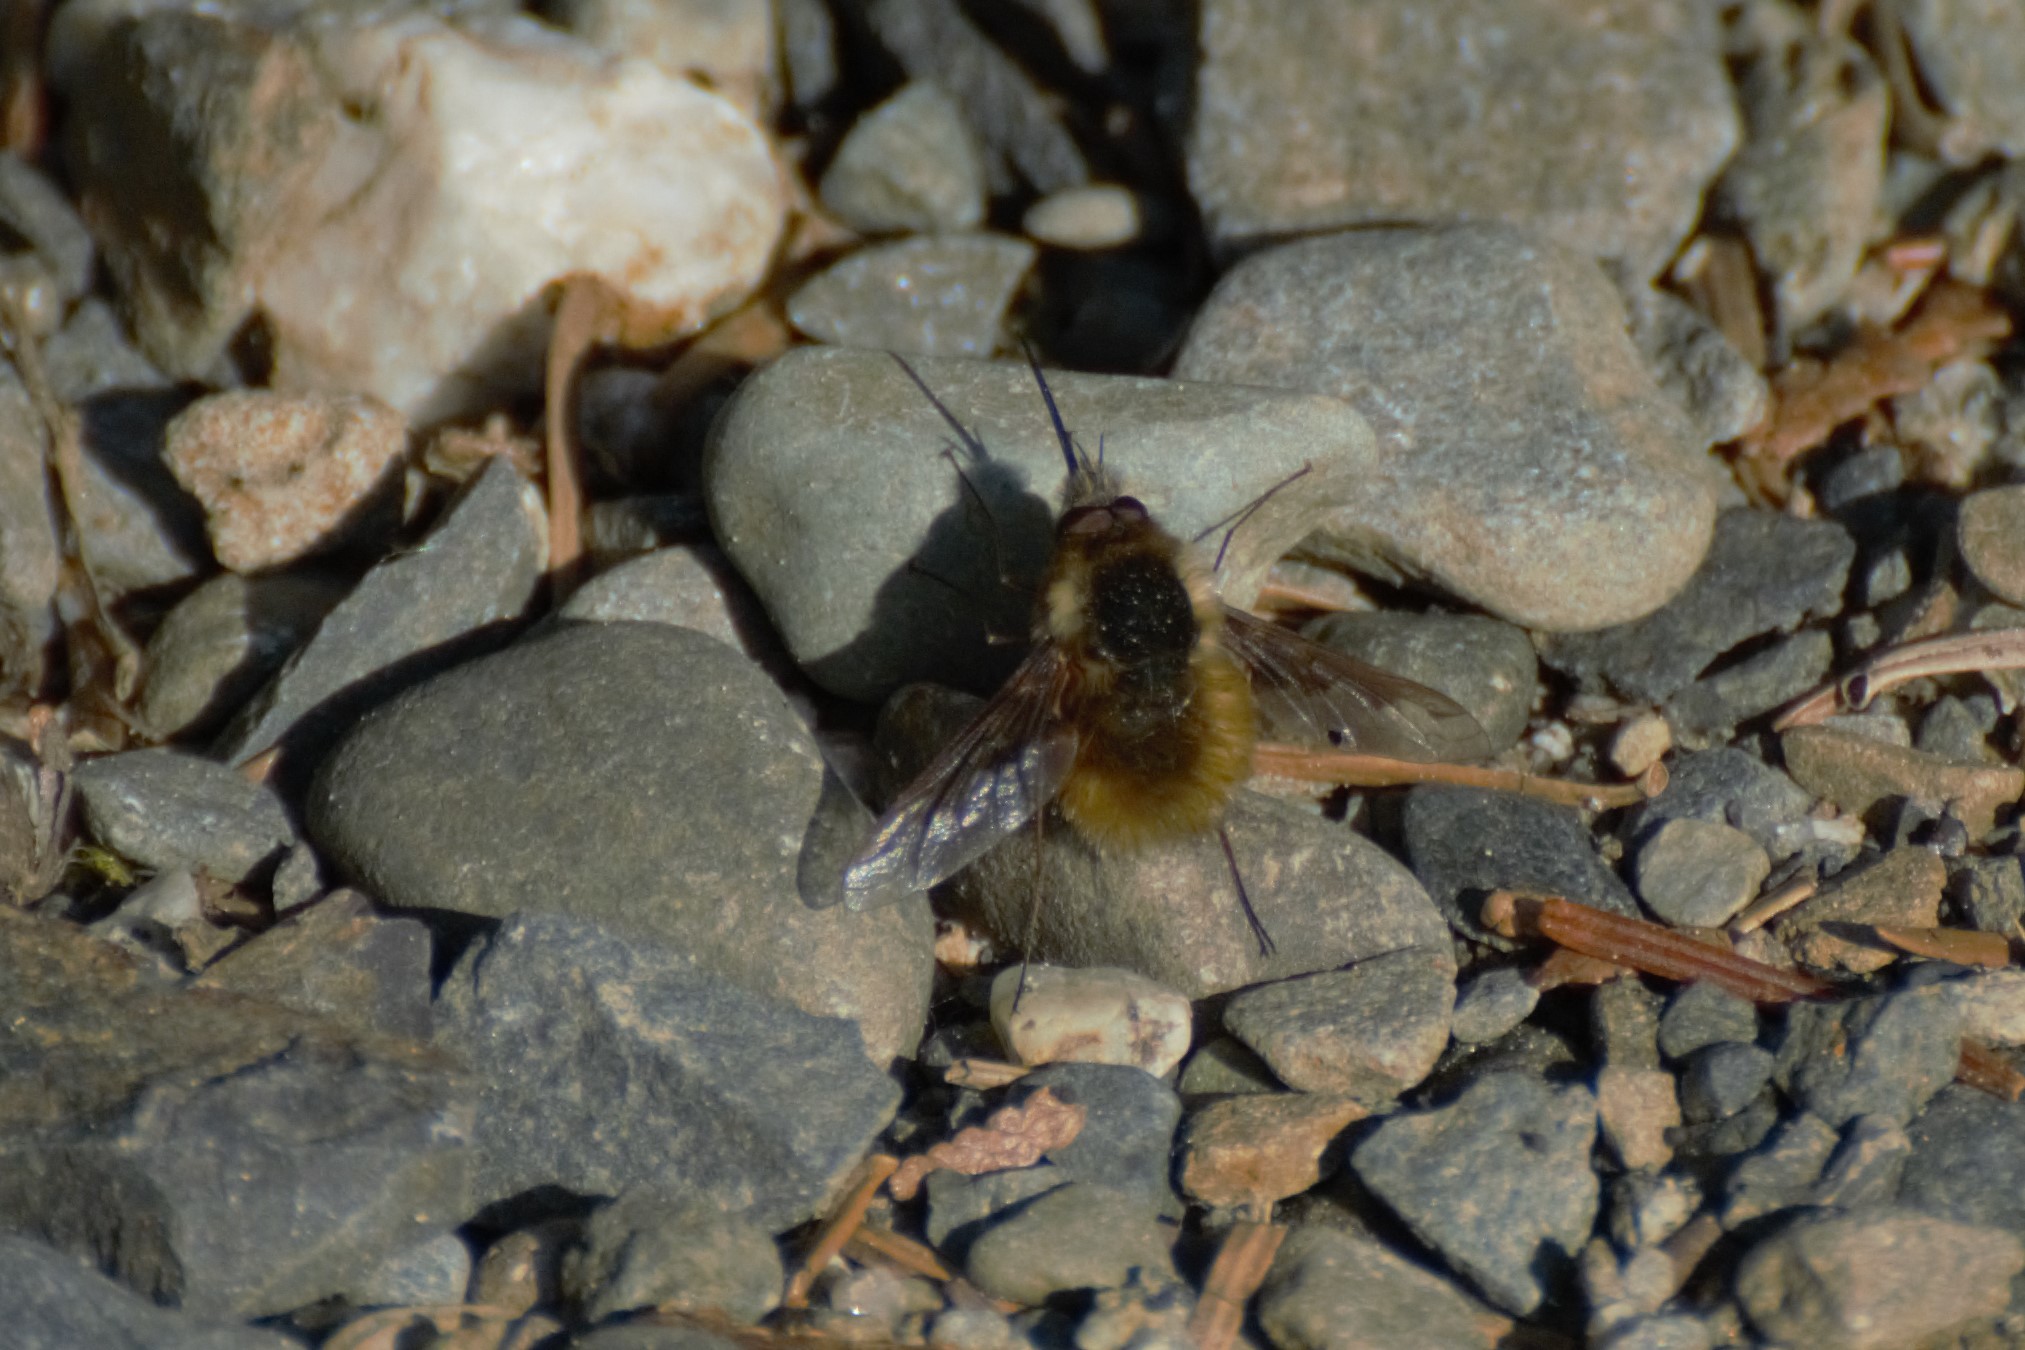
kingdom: Animalia
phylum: Arthropoda
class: Insecta
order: Diptera
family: Bombyliidae
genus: Bombylius
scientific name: Bombylius major
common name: Bee fly
